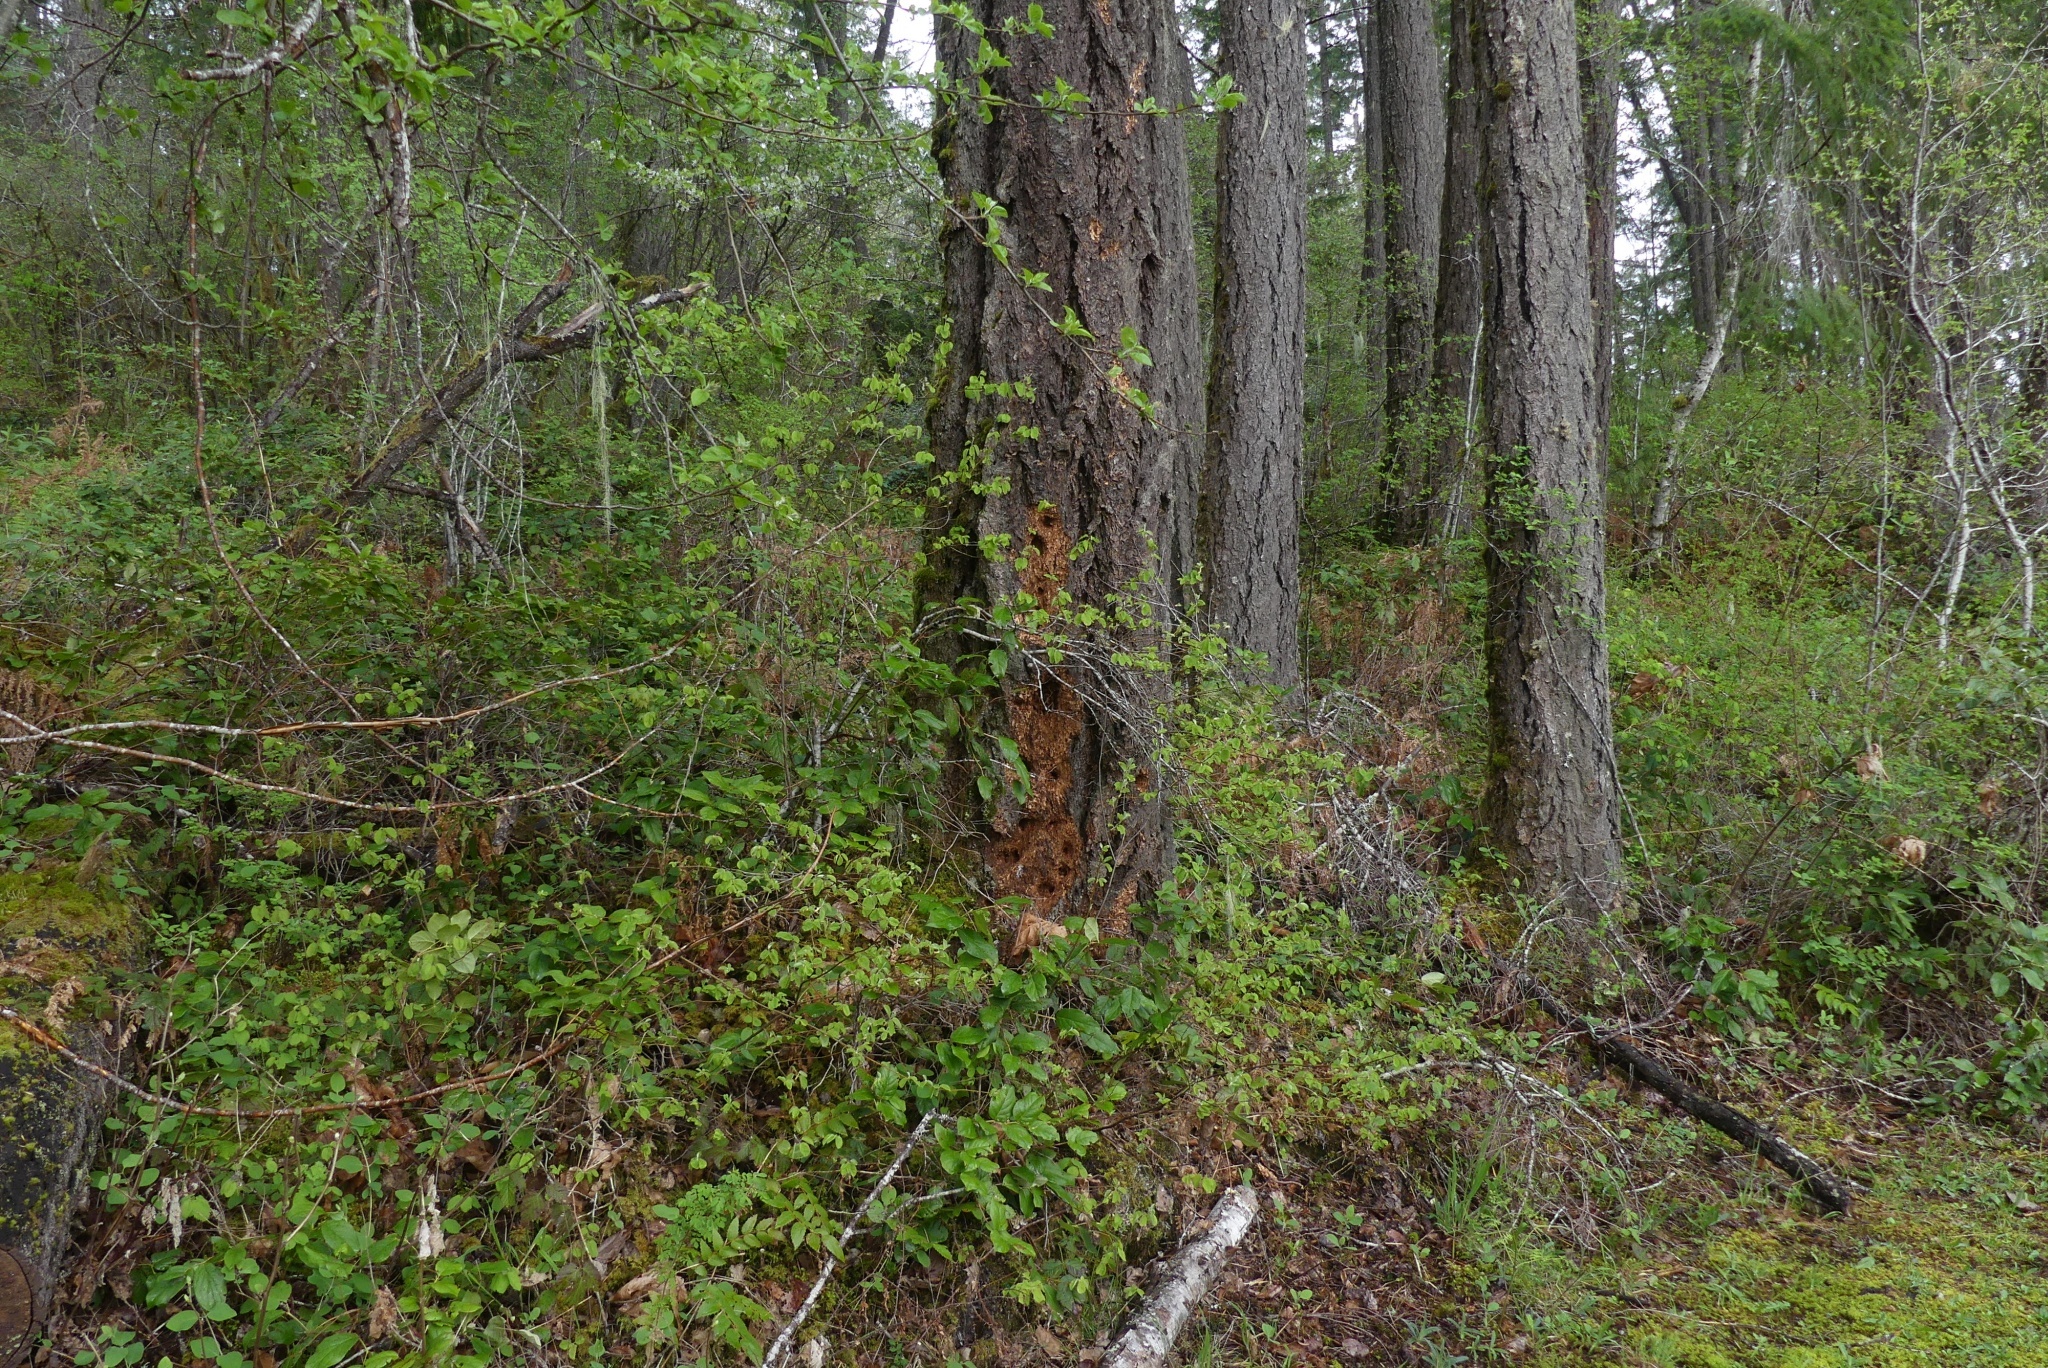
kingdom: Animalia
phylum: Chordata
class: Aves
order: Piciformes
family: Picidae
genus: Dryocopus
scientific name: Dryocopus pileatus
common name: Pileated woodpecker
